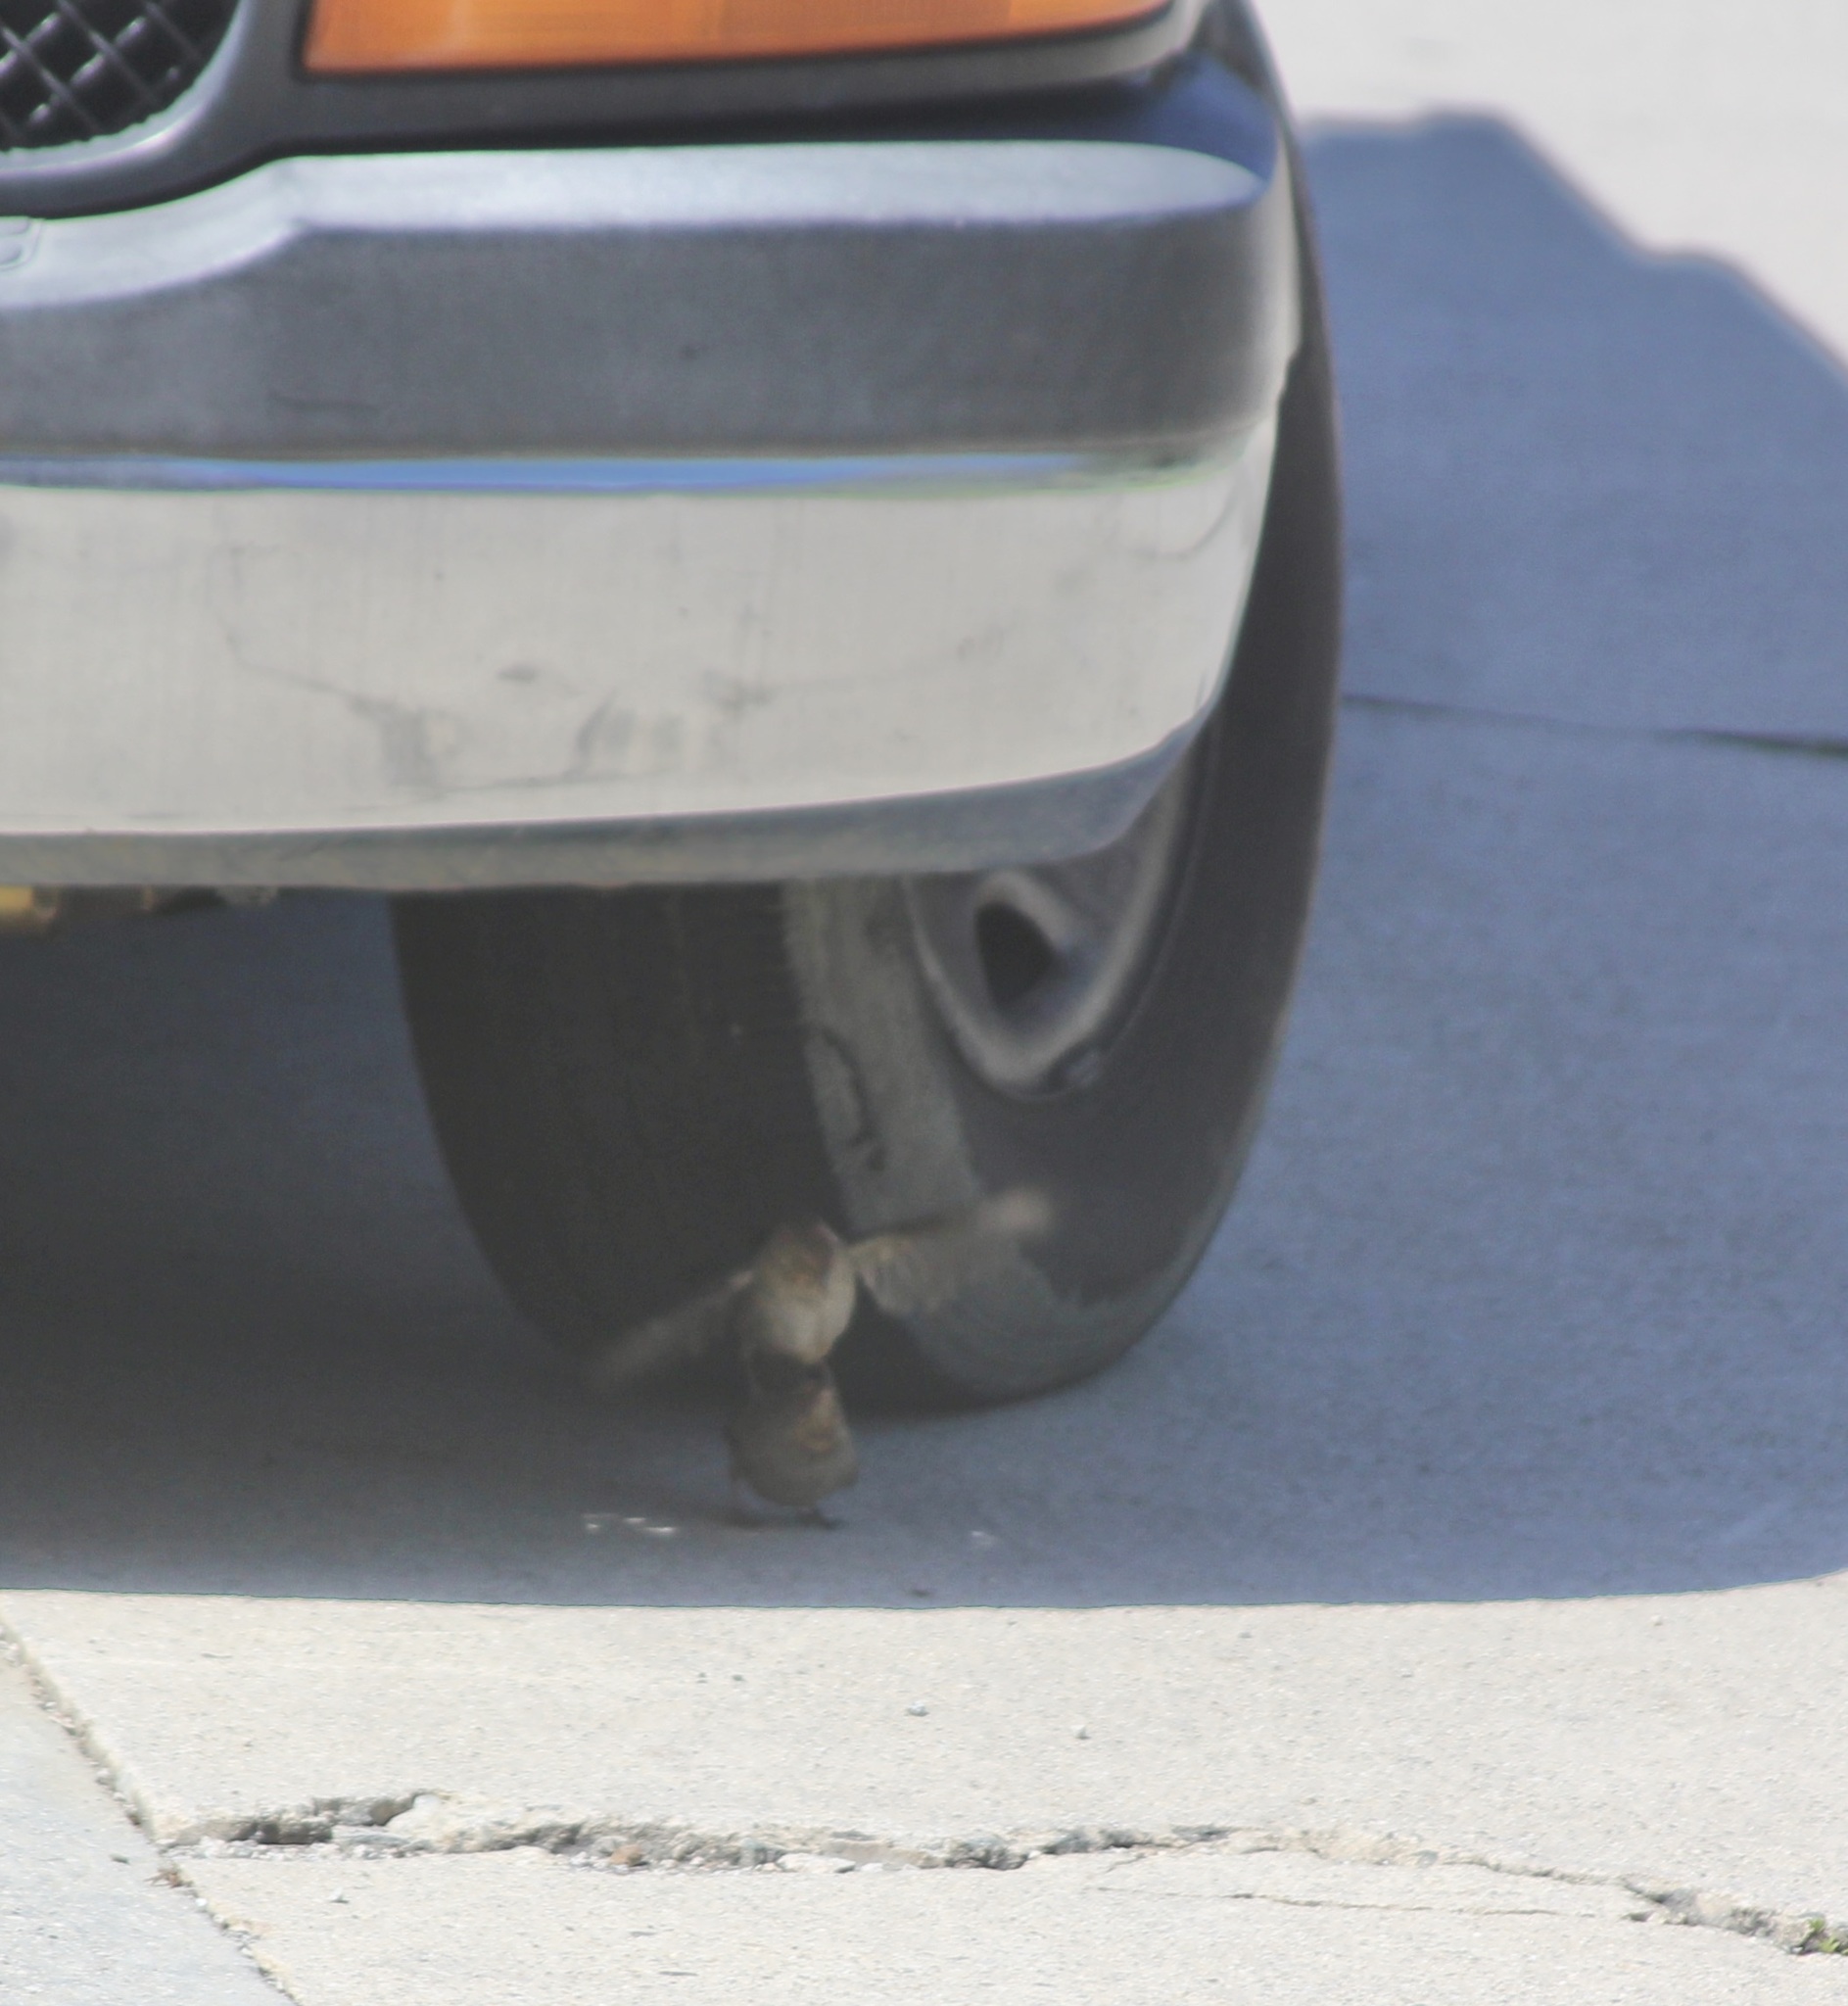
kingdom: Animalia
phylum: Chordata
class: Aves
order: Passeriformes
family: Passerellidae
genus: Melozone
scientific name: Melozone crissalis
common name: California towhee
